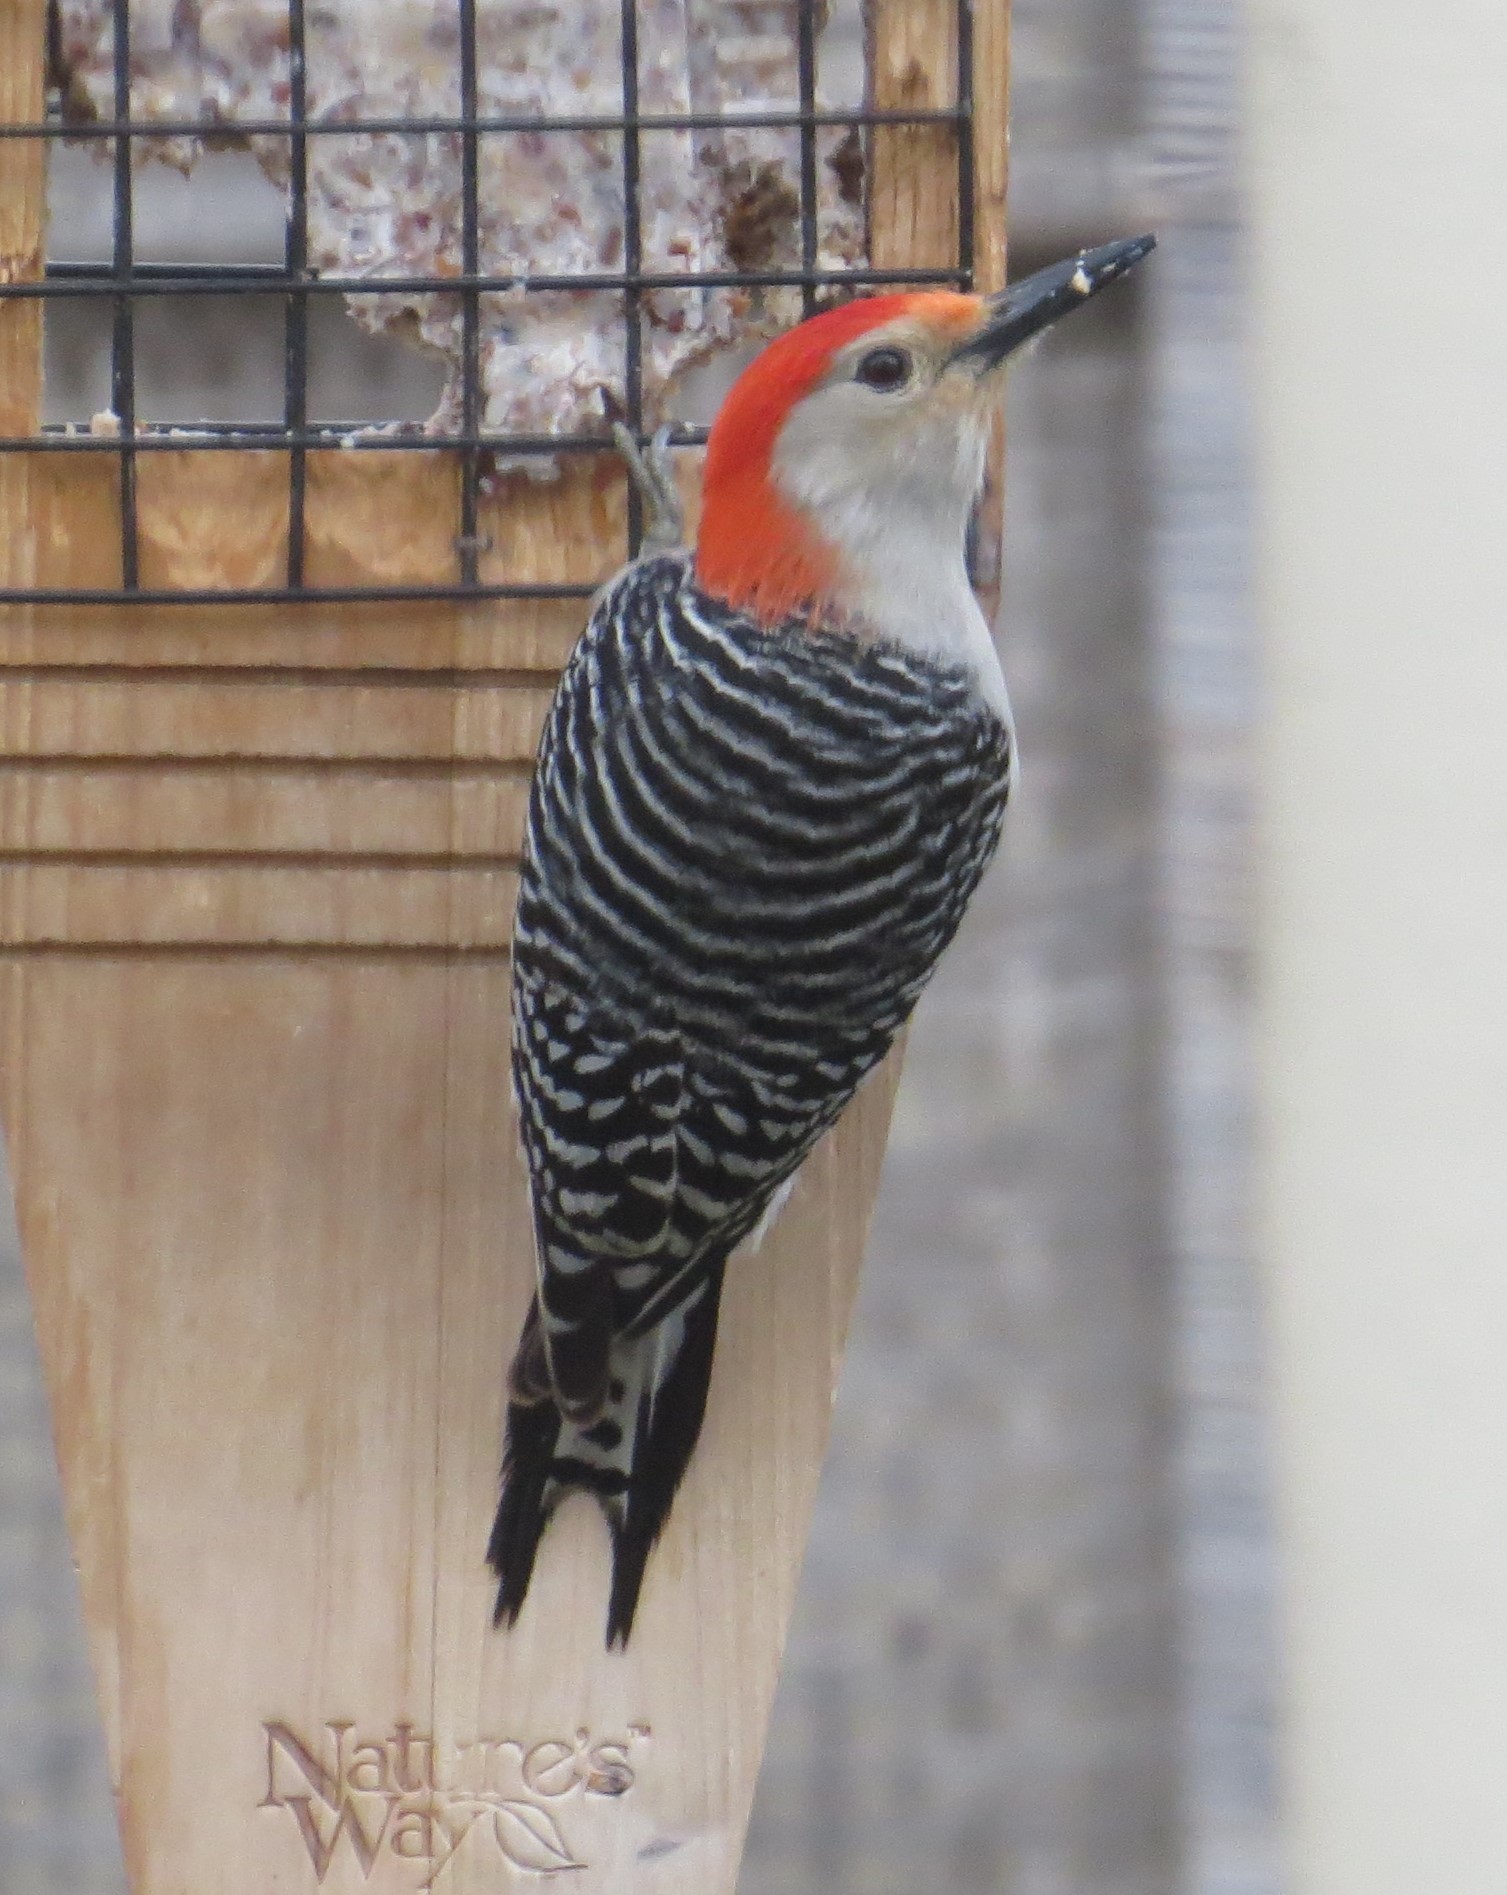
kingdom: Animalia
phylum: Chordata
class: Aves
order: Piciformes
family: Picidae
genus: Melanerpes
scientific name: Melanerpes carolinus
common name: Red-bellied woodpecker
